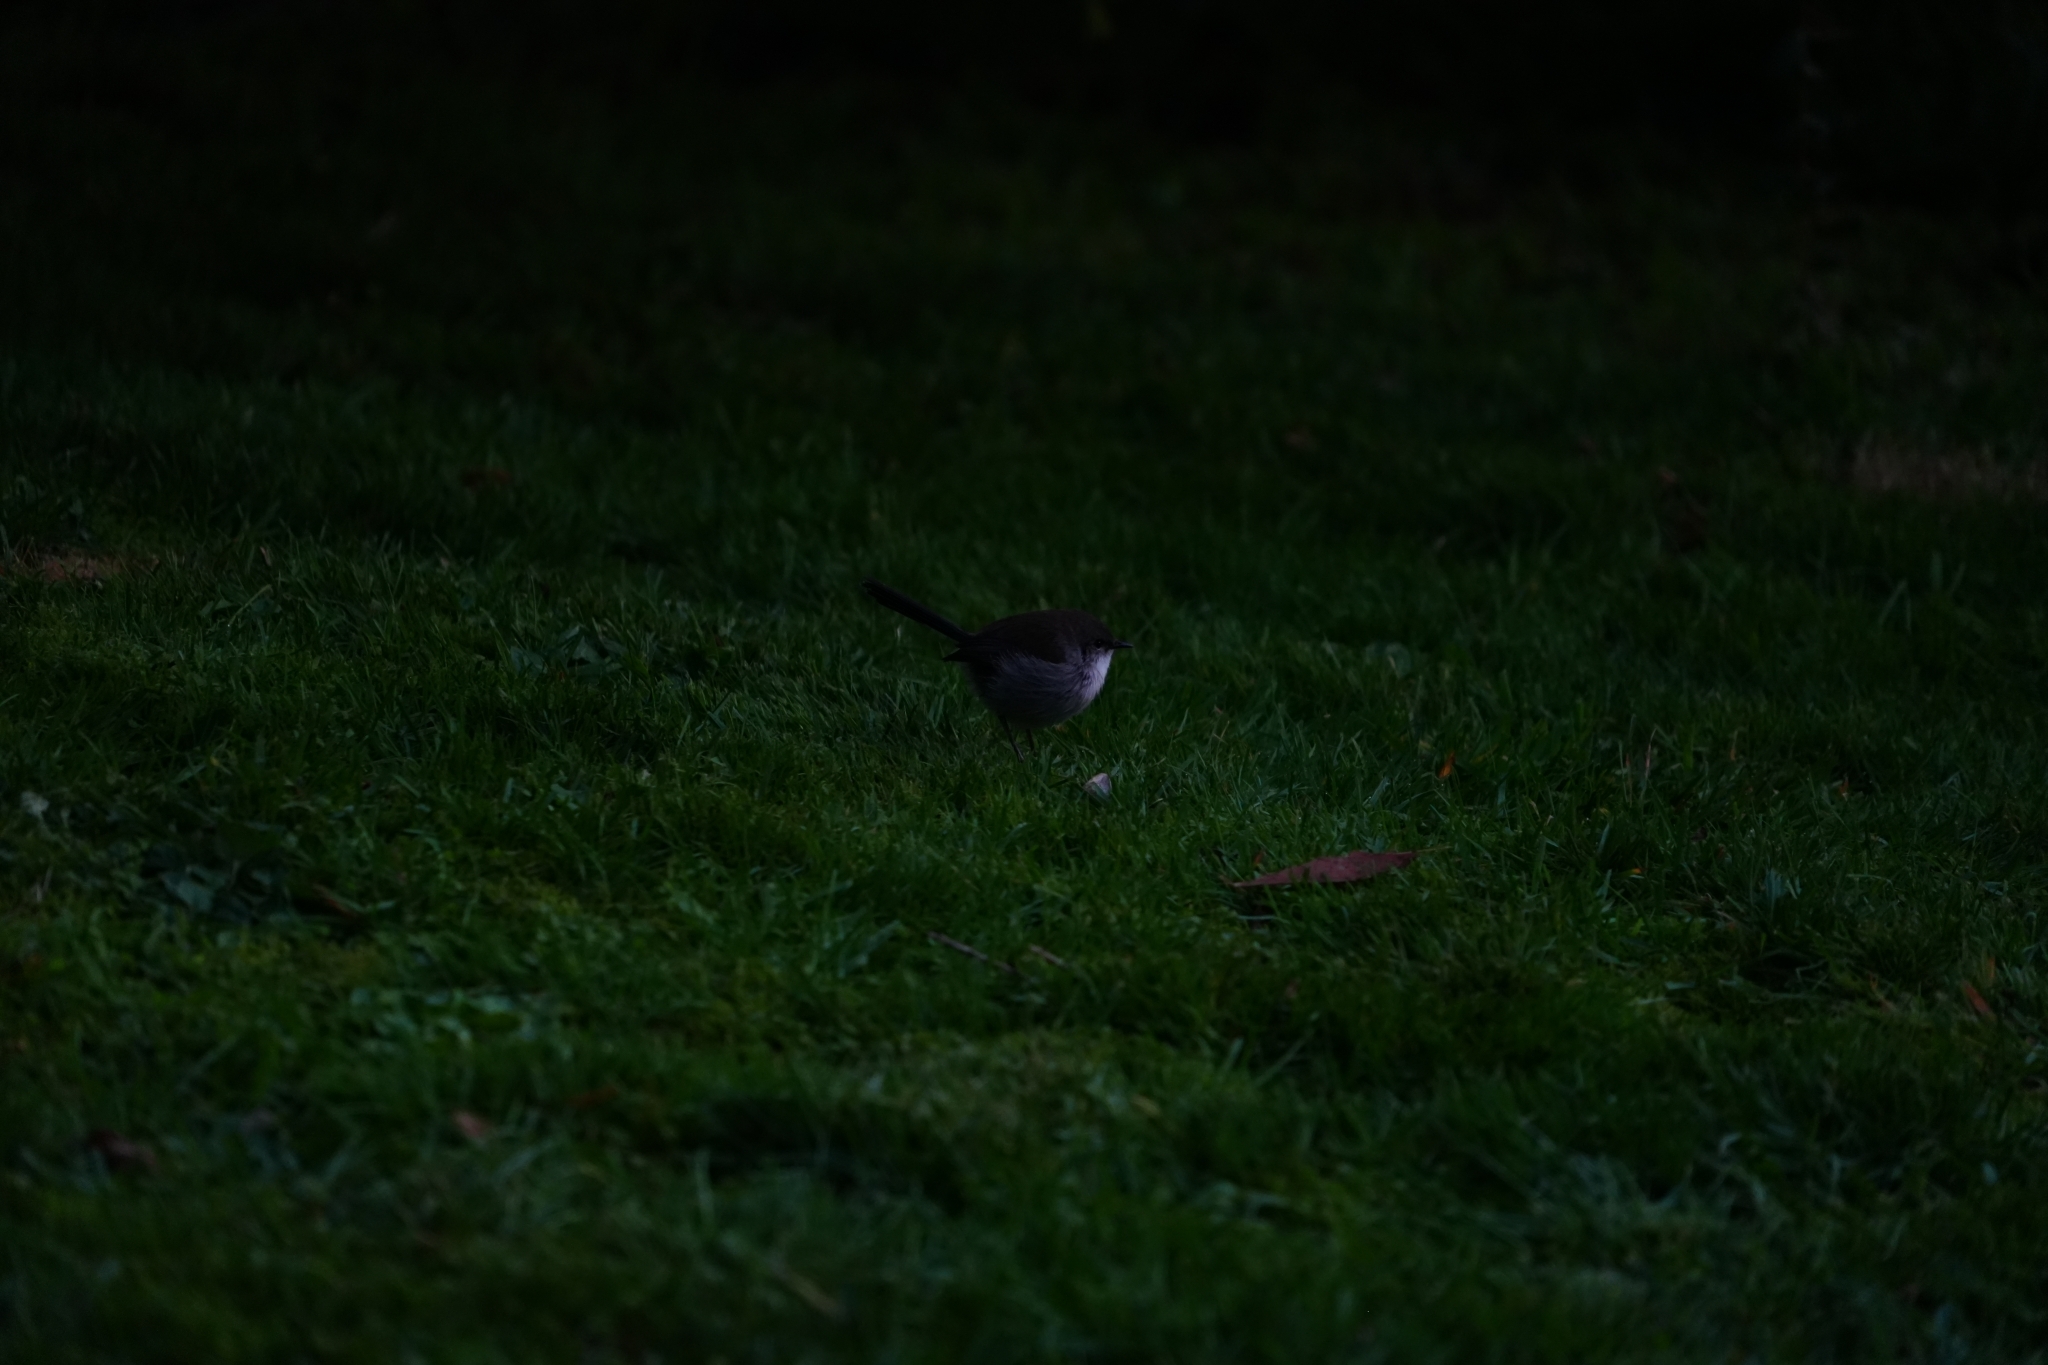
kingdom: Animalia
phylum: Chordata
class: Aves
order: Passeriformes
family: Maluridae
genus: Malurus
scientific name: Malurus cyaneus
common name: Superb fairywren
